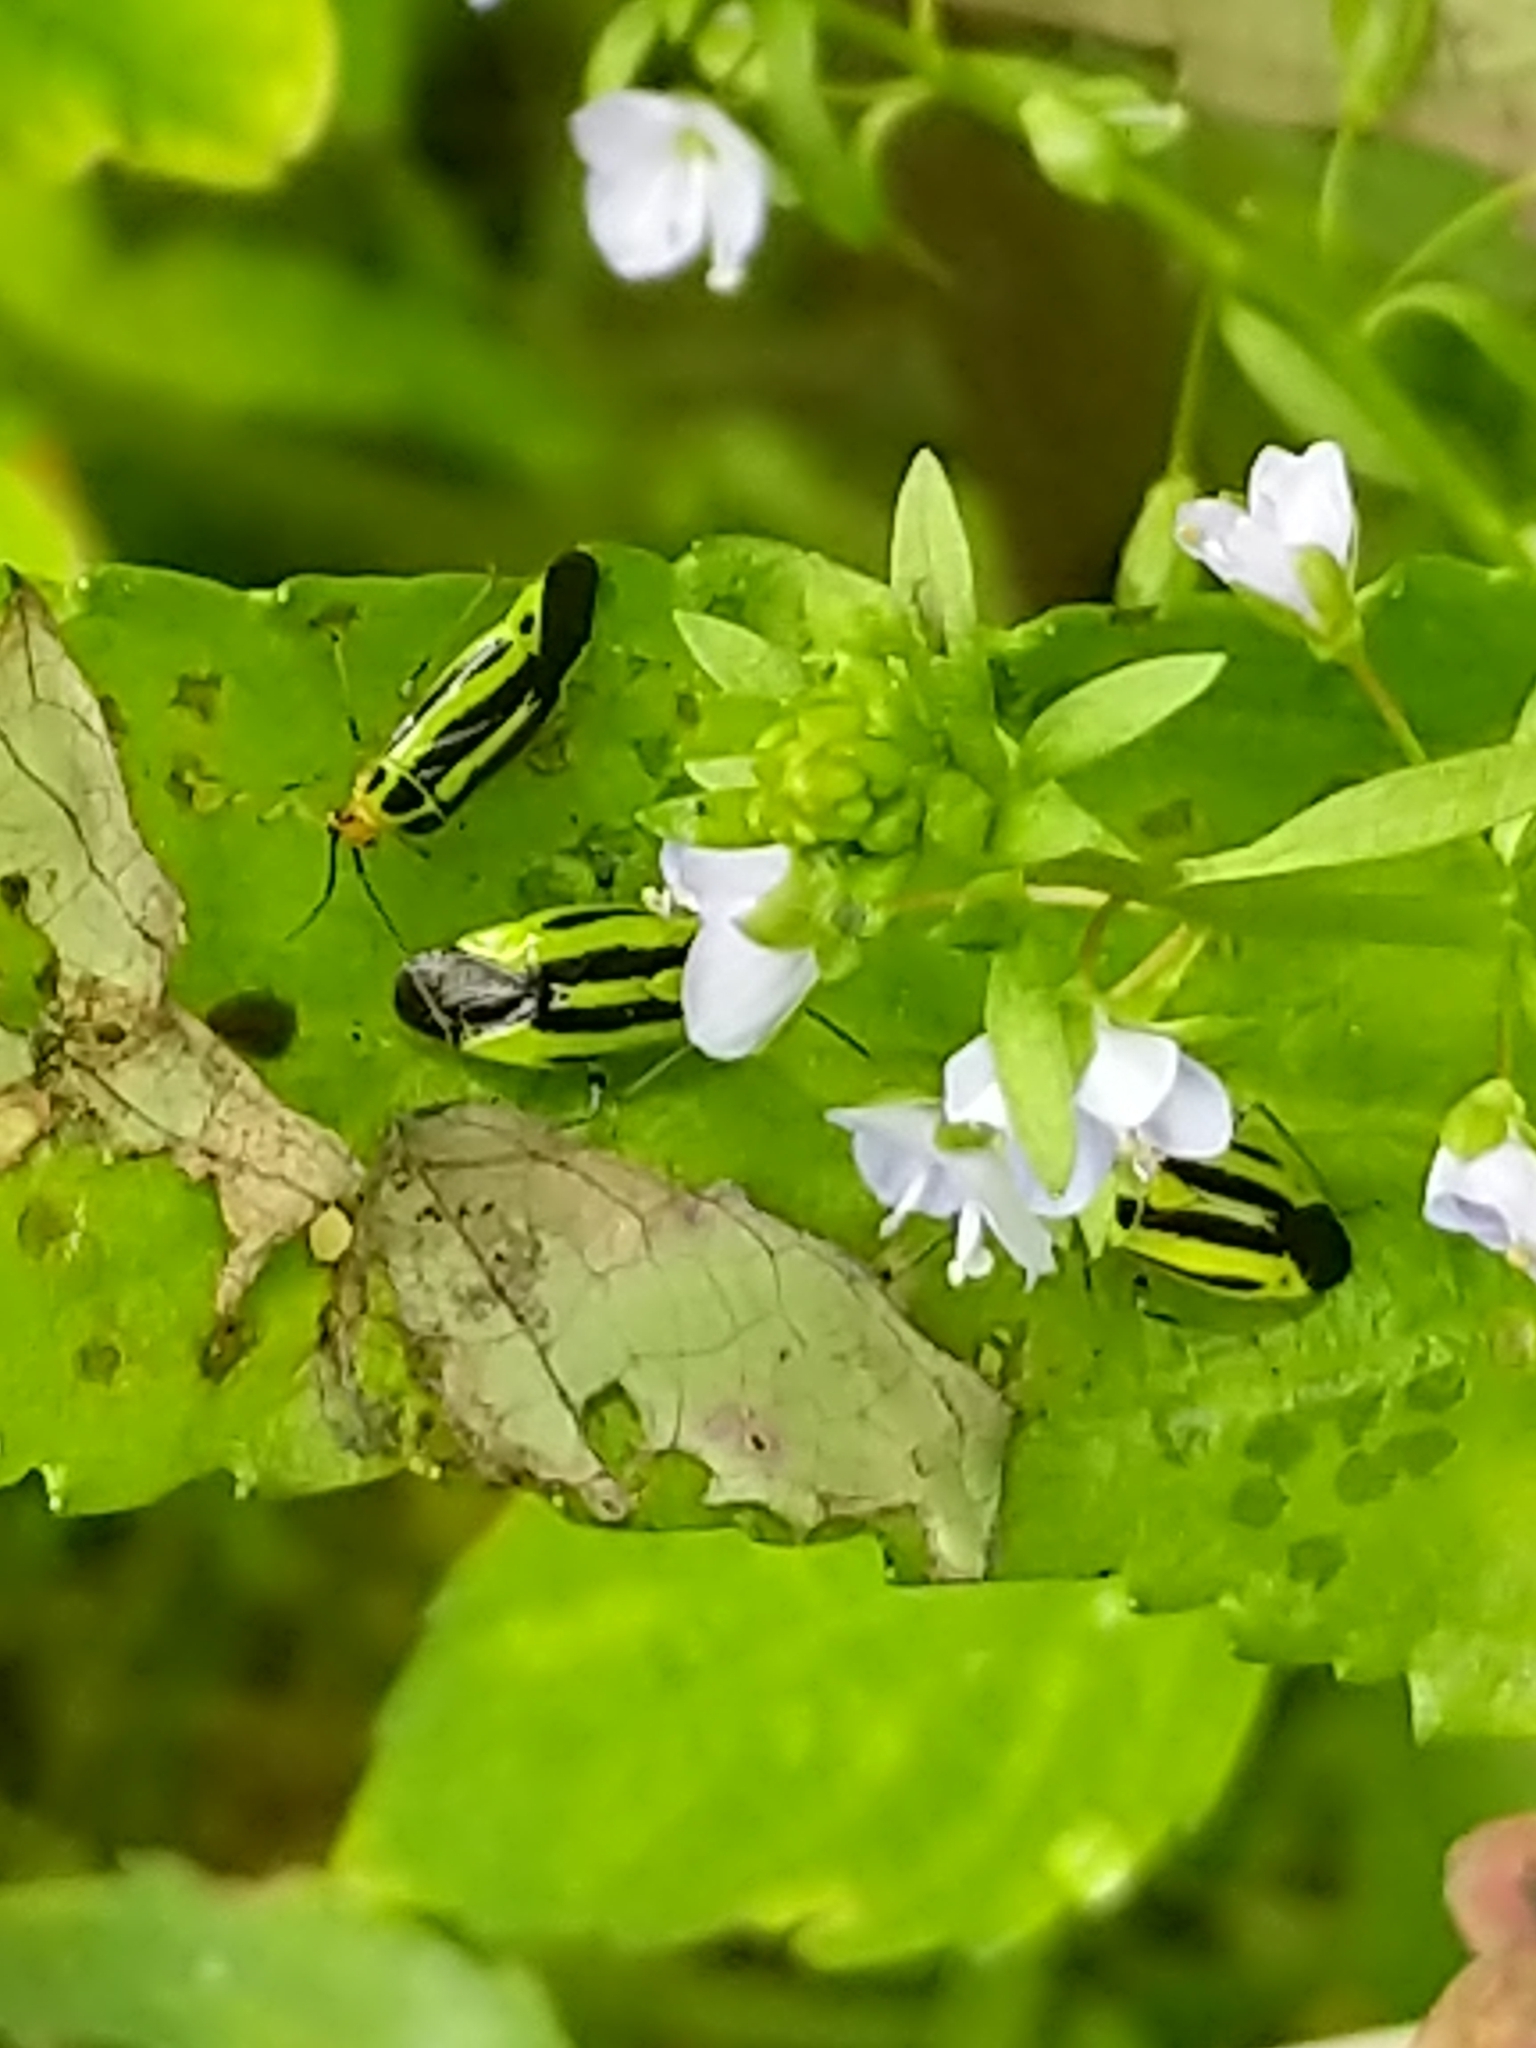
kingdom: Animalia
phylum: Arthropoda
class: Insecta
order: Hemiptera
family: Miridae
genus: Poecilocapsus
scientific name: Poecilocapsus lineatus
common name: Four-lined plant bug
